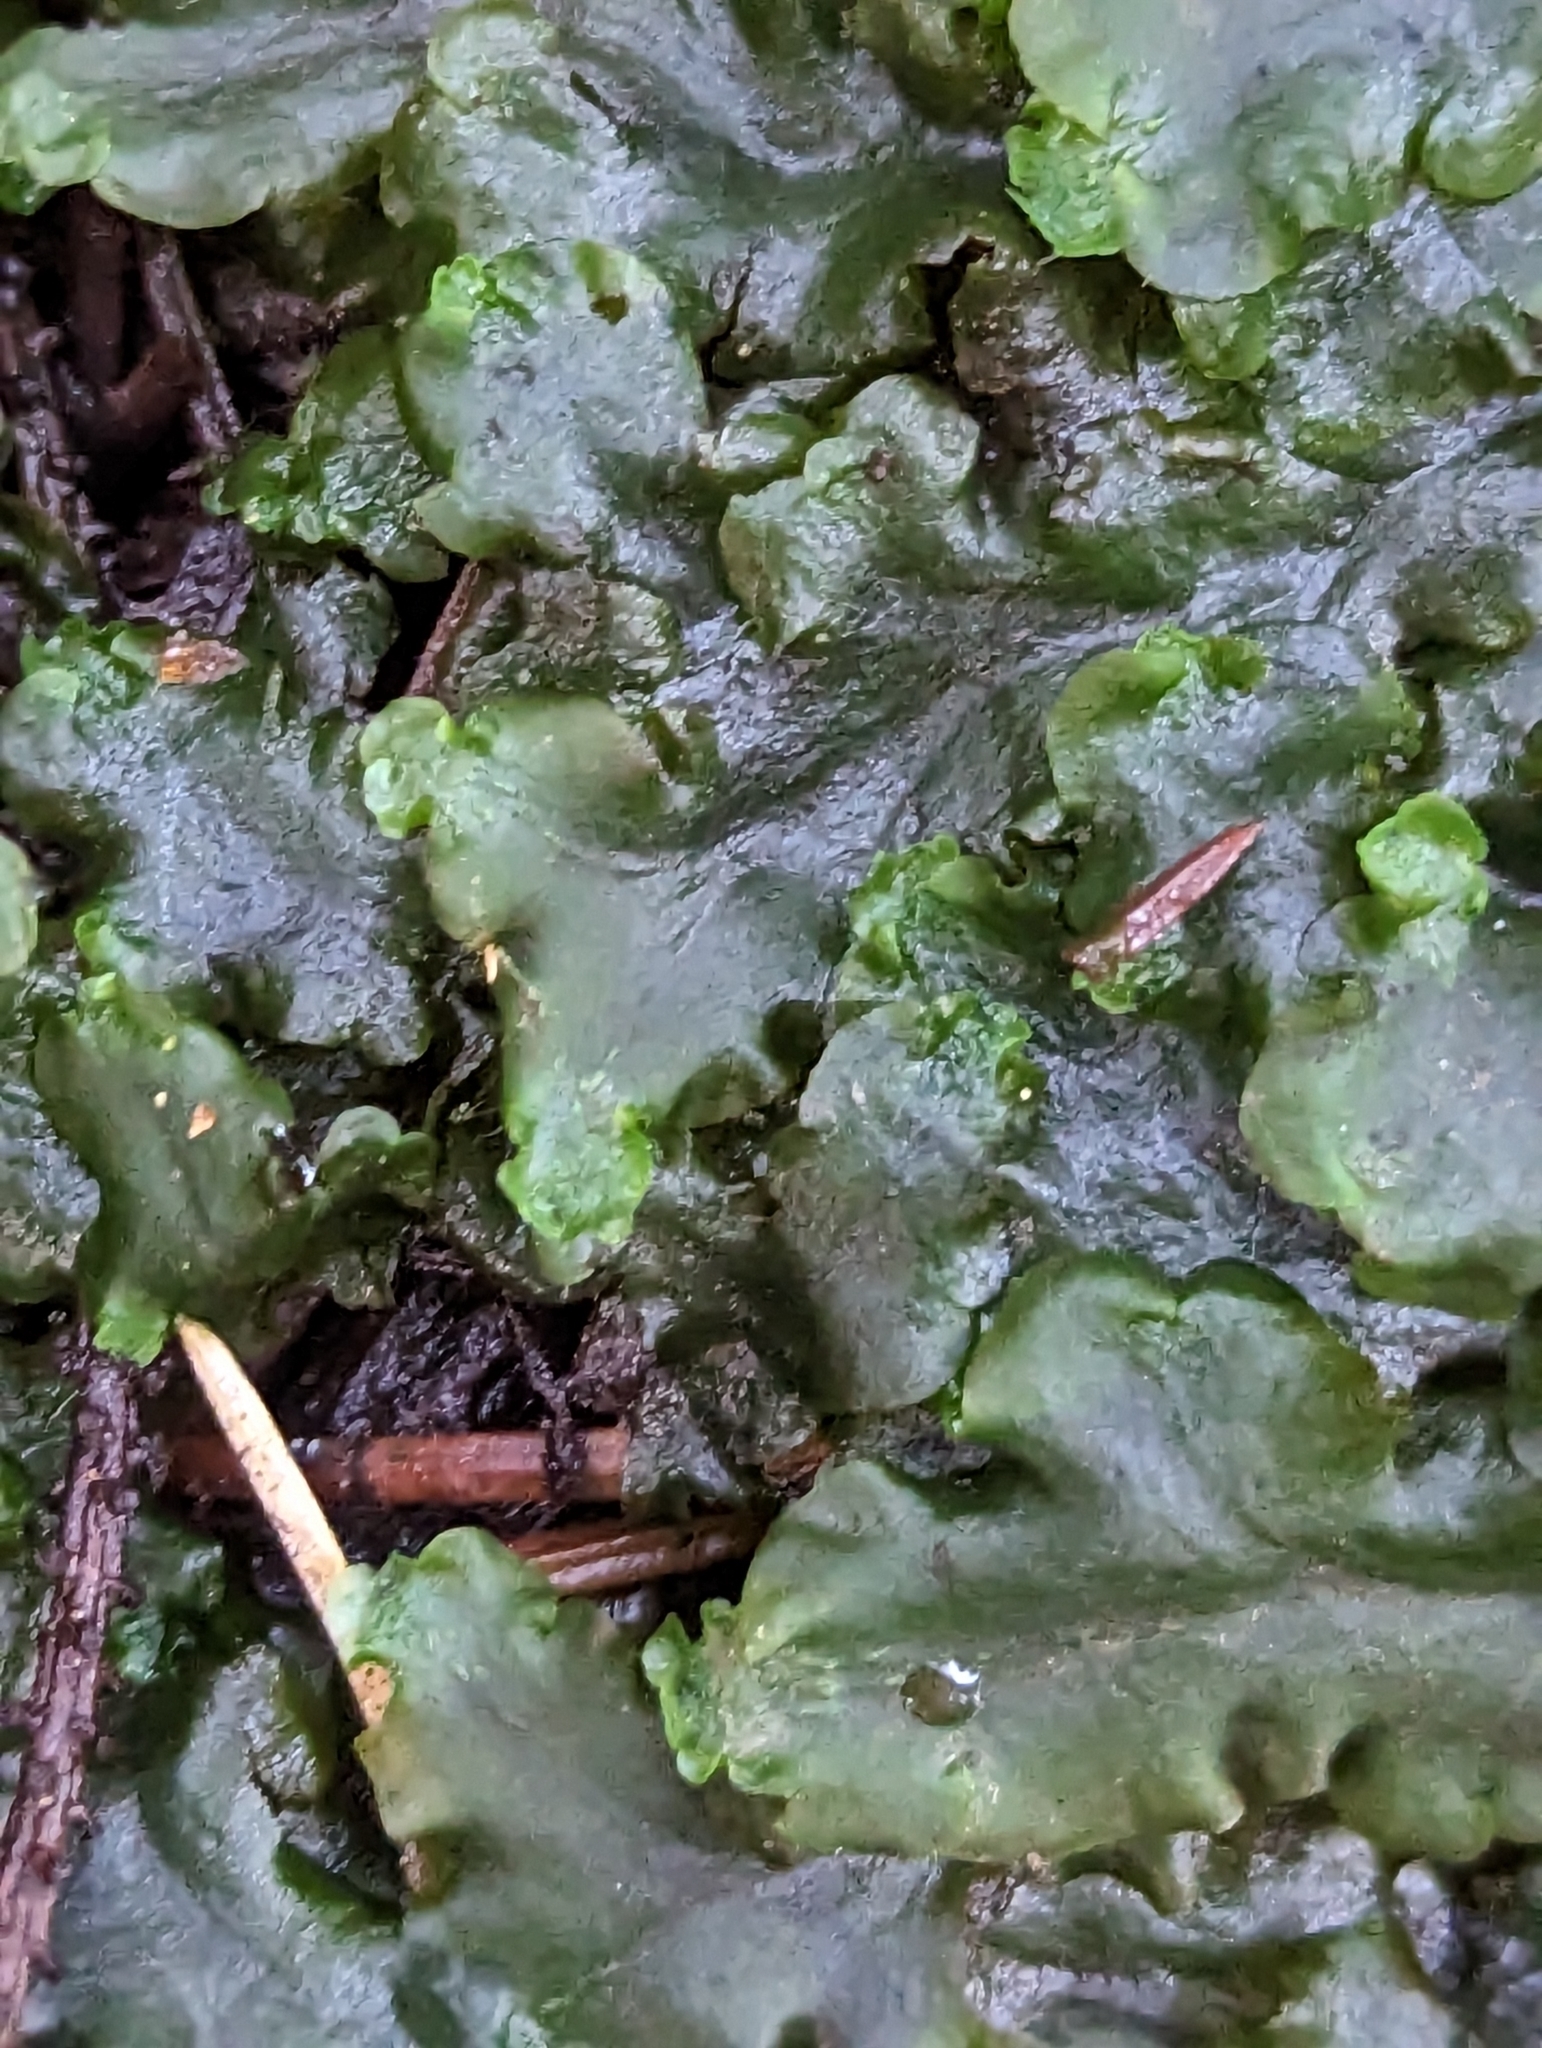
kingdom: Plantae
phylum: Marchantiophyta
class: Jungermanniopsida
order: Pelliales
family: Pelliaceae
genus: Pellia
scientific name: Pellia epiphylla
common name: Common pellia
